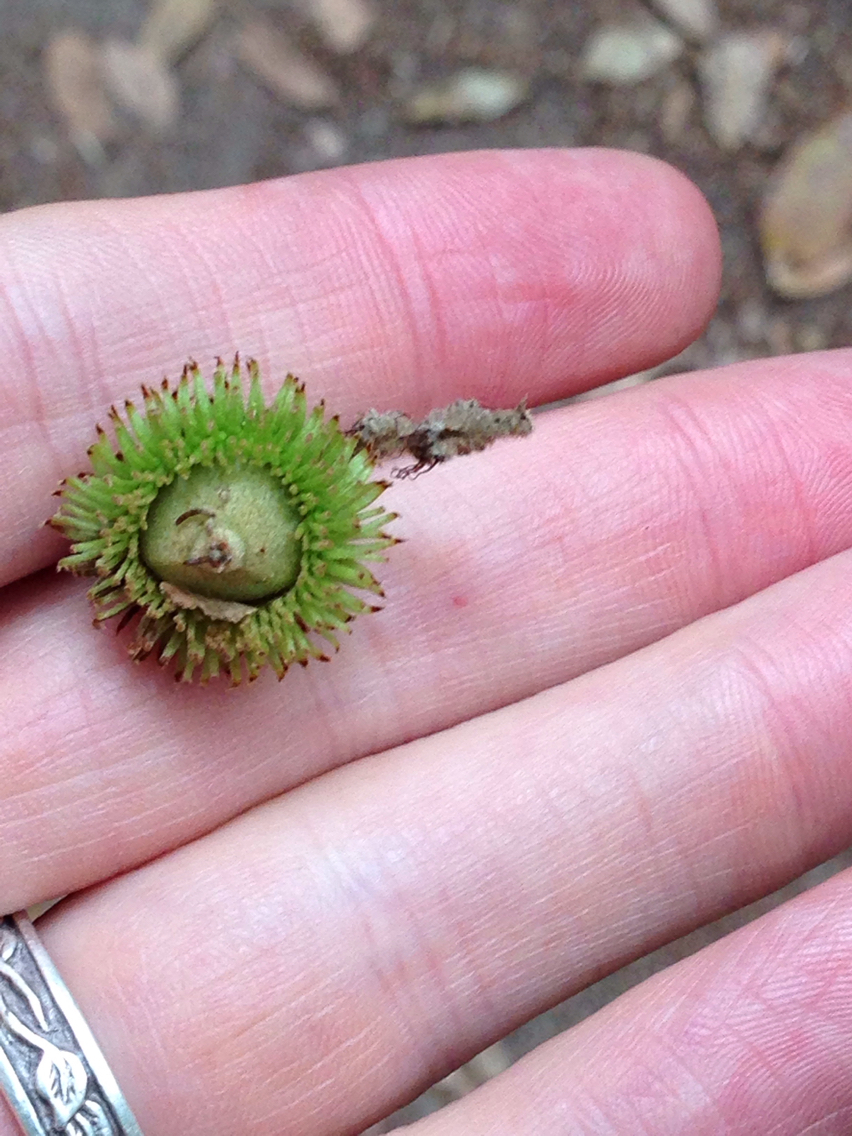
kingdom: Plantae
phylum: Tracheophyta
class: Magnoliopsida
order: Fagales
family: Fagaceae
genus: Notholithocarpus
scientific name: Notholithocarpus densiflorus
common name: Tan bark oak
